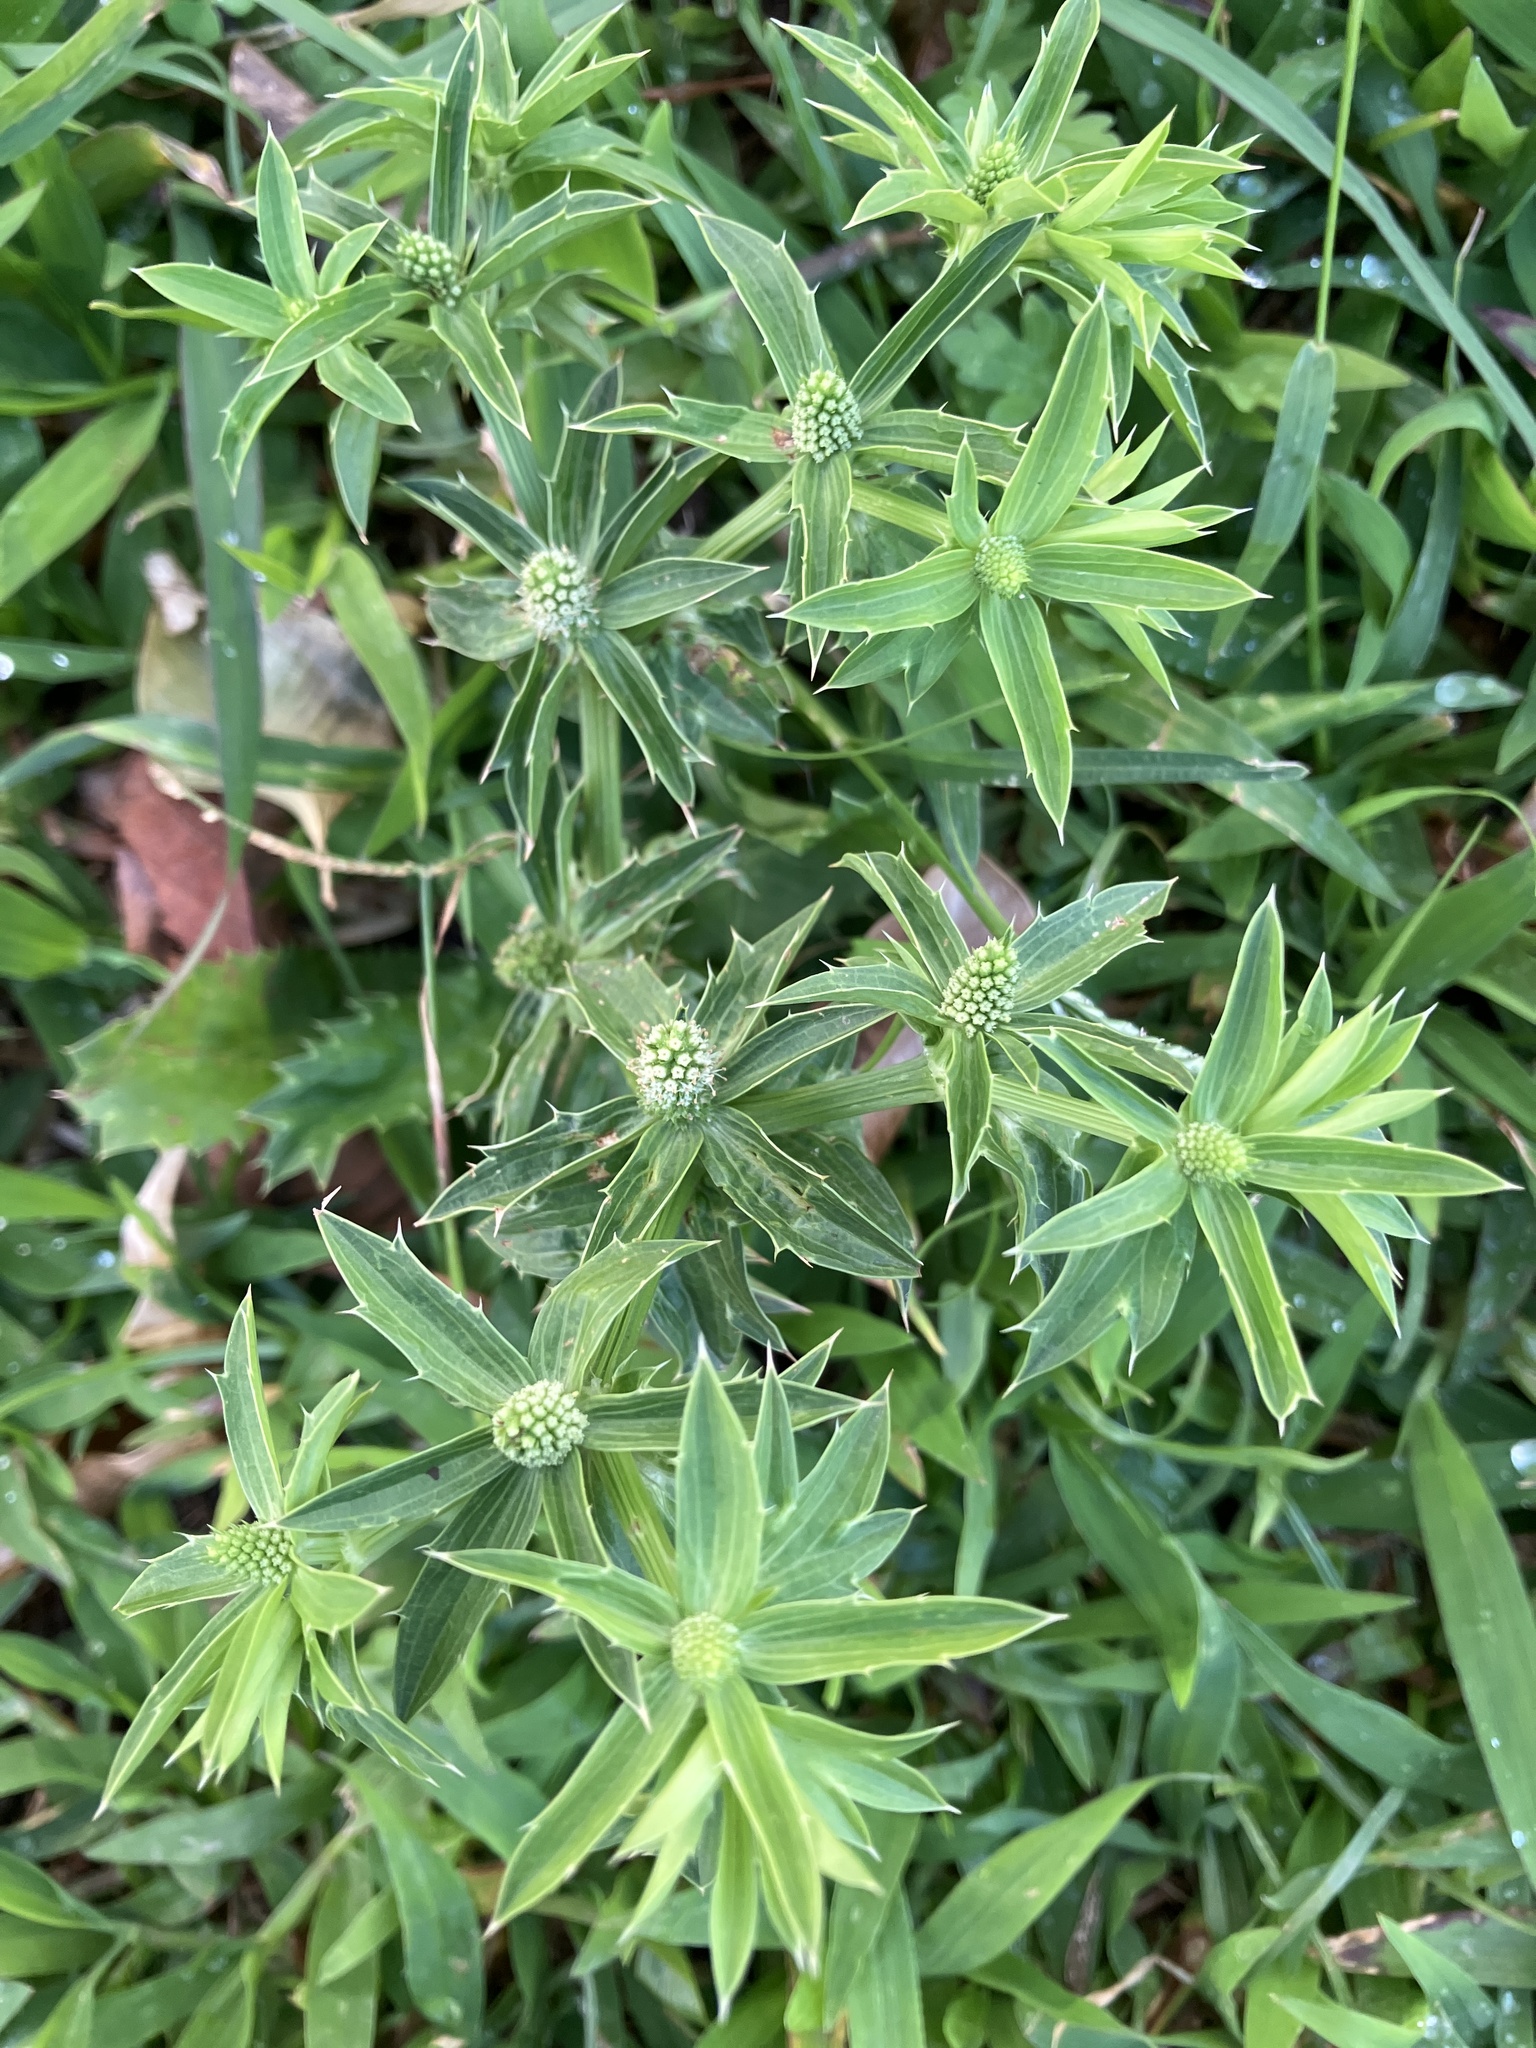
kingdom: Plantae
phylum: Tracheophyta
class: Magnoliopsida
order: Apiales
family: Apiaceae
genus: Eryngium
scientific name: Eryngium foetidum
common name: Fitweed
